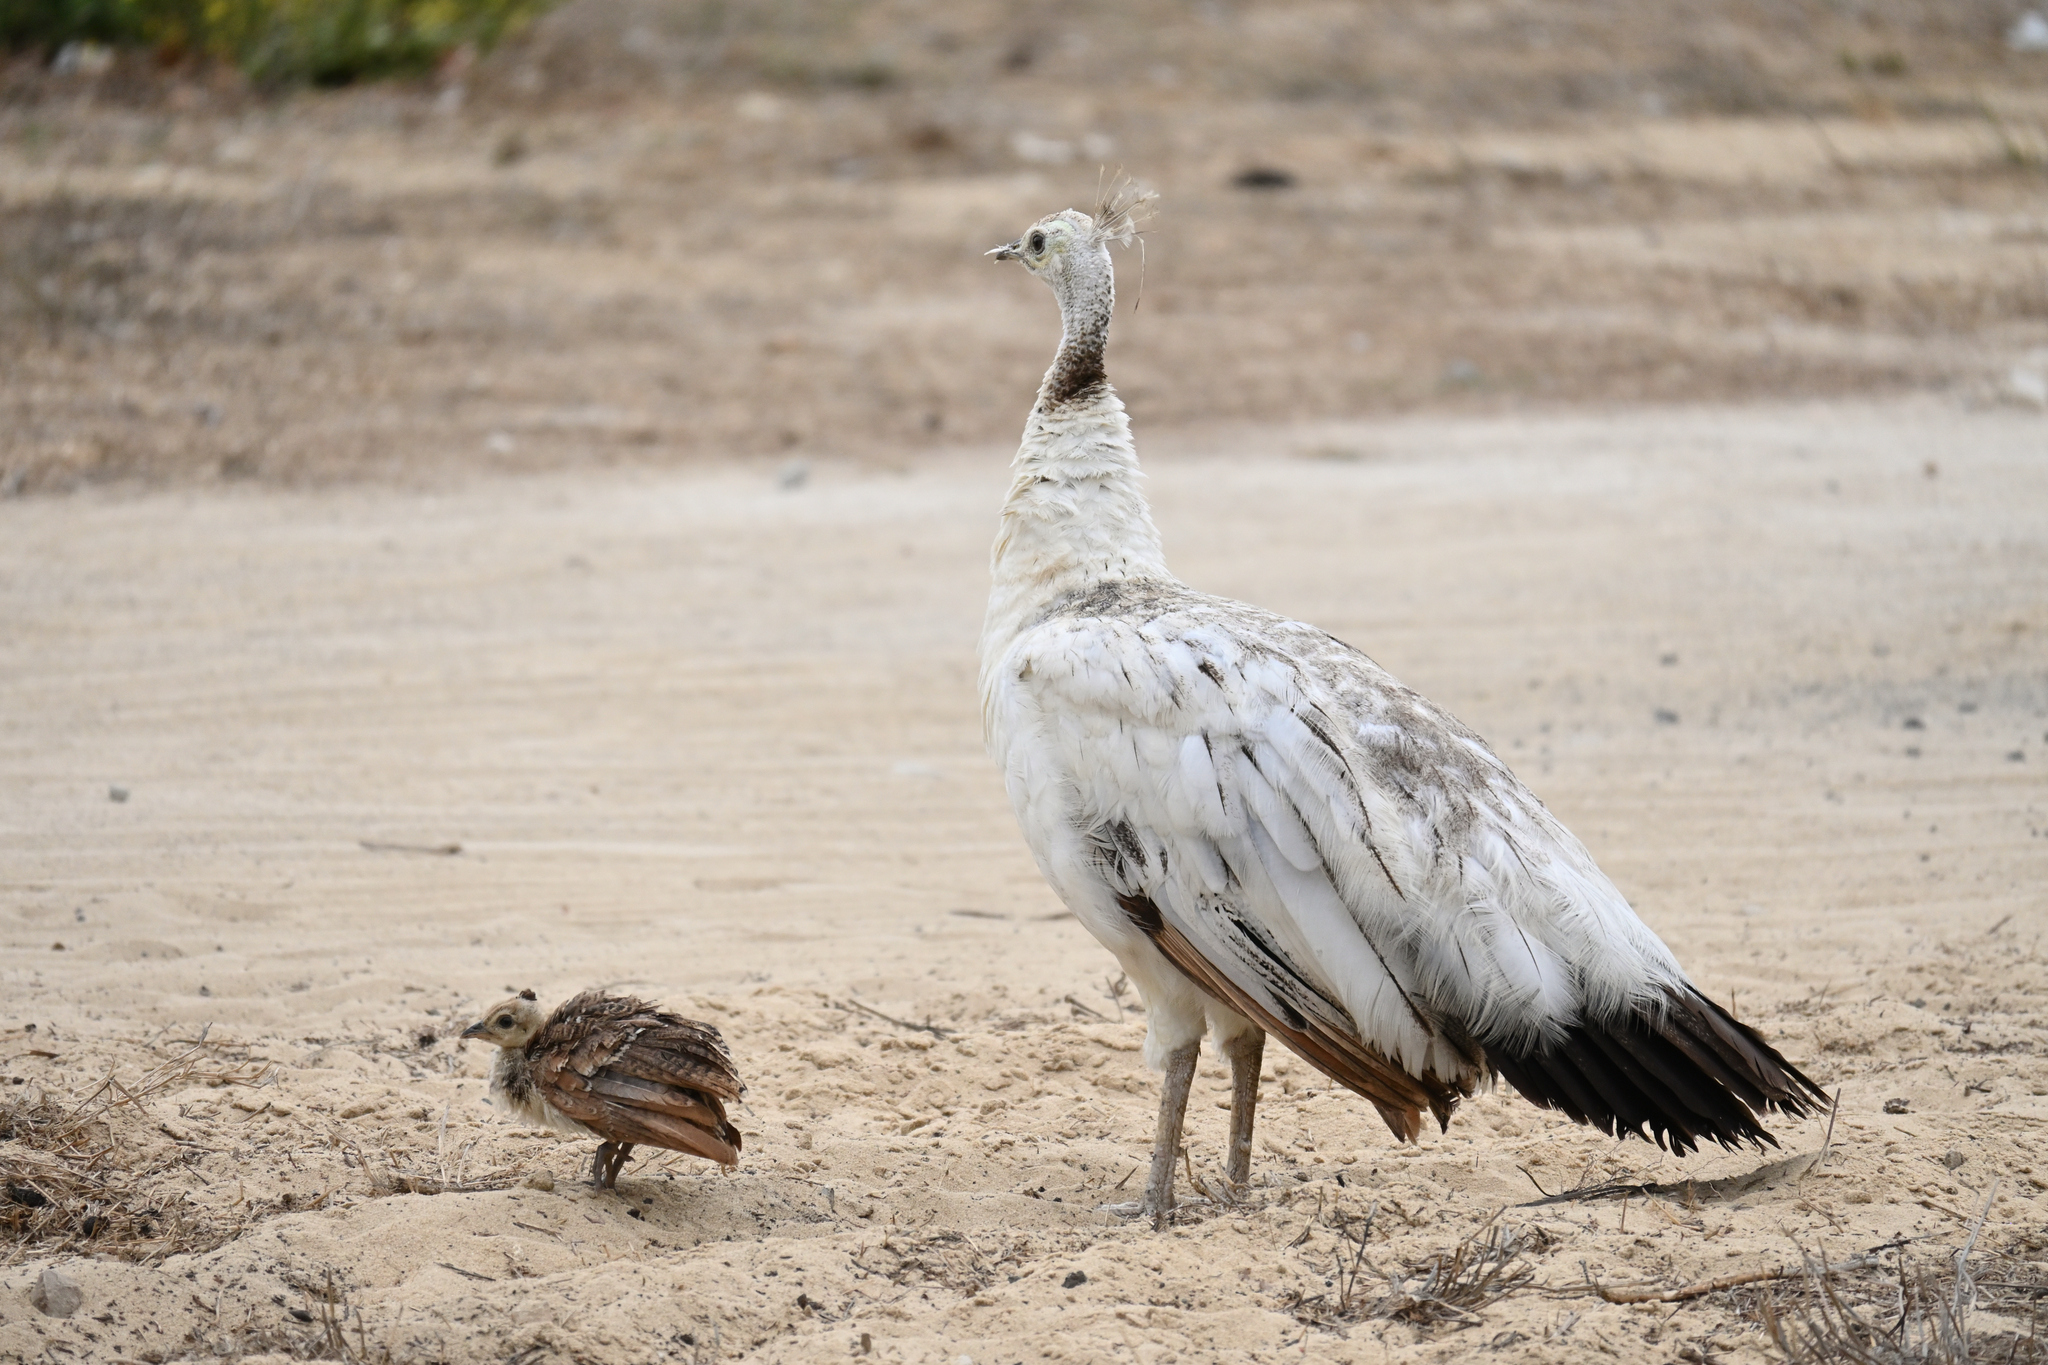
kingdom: Animalia
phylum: Chordata
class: Aves
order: Galliformes
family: Phasianidae
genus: Pavo
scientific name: Pavo cristatus
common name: Indian peafowl
